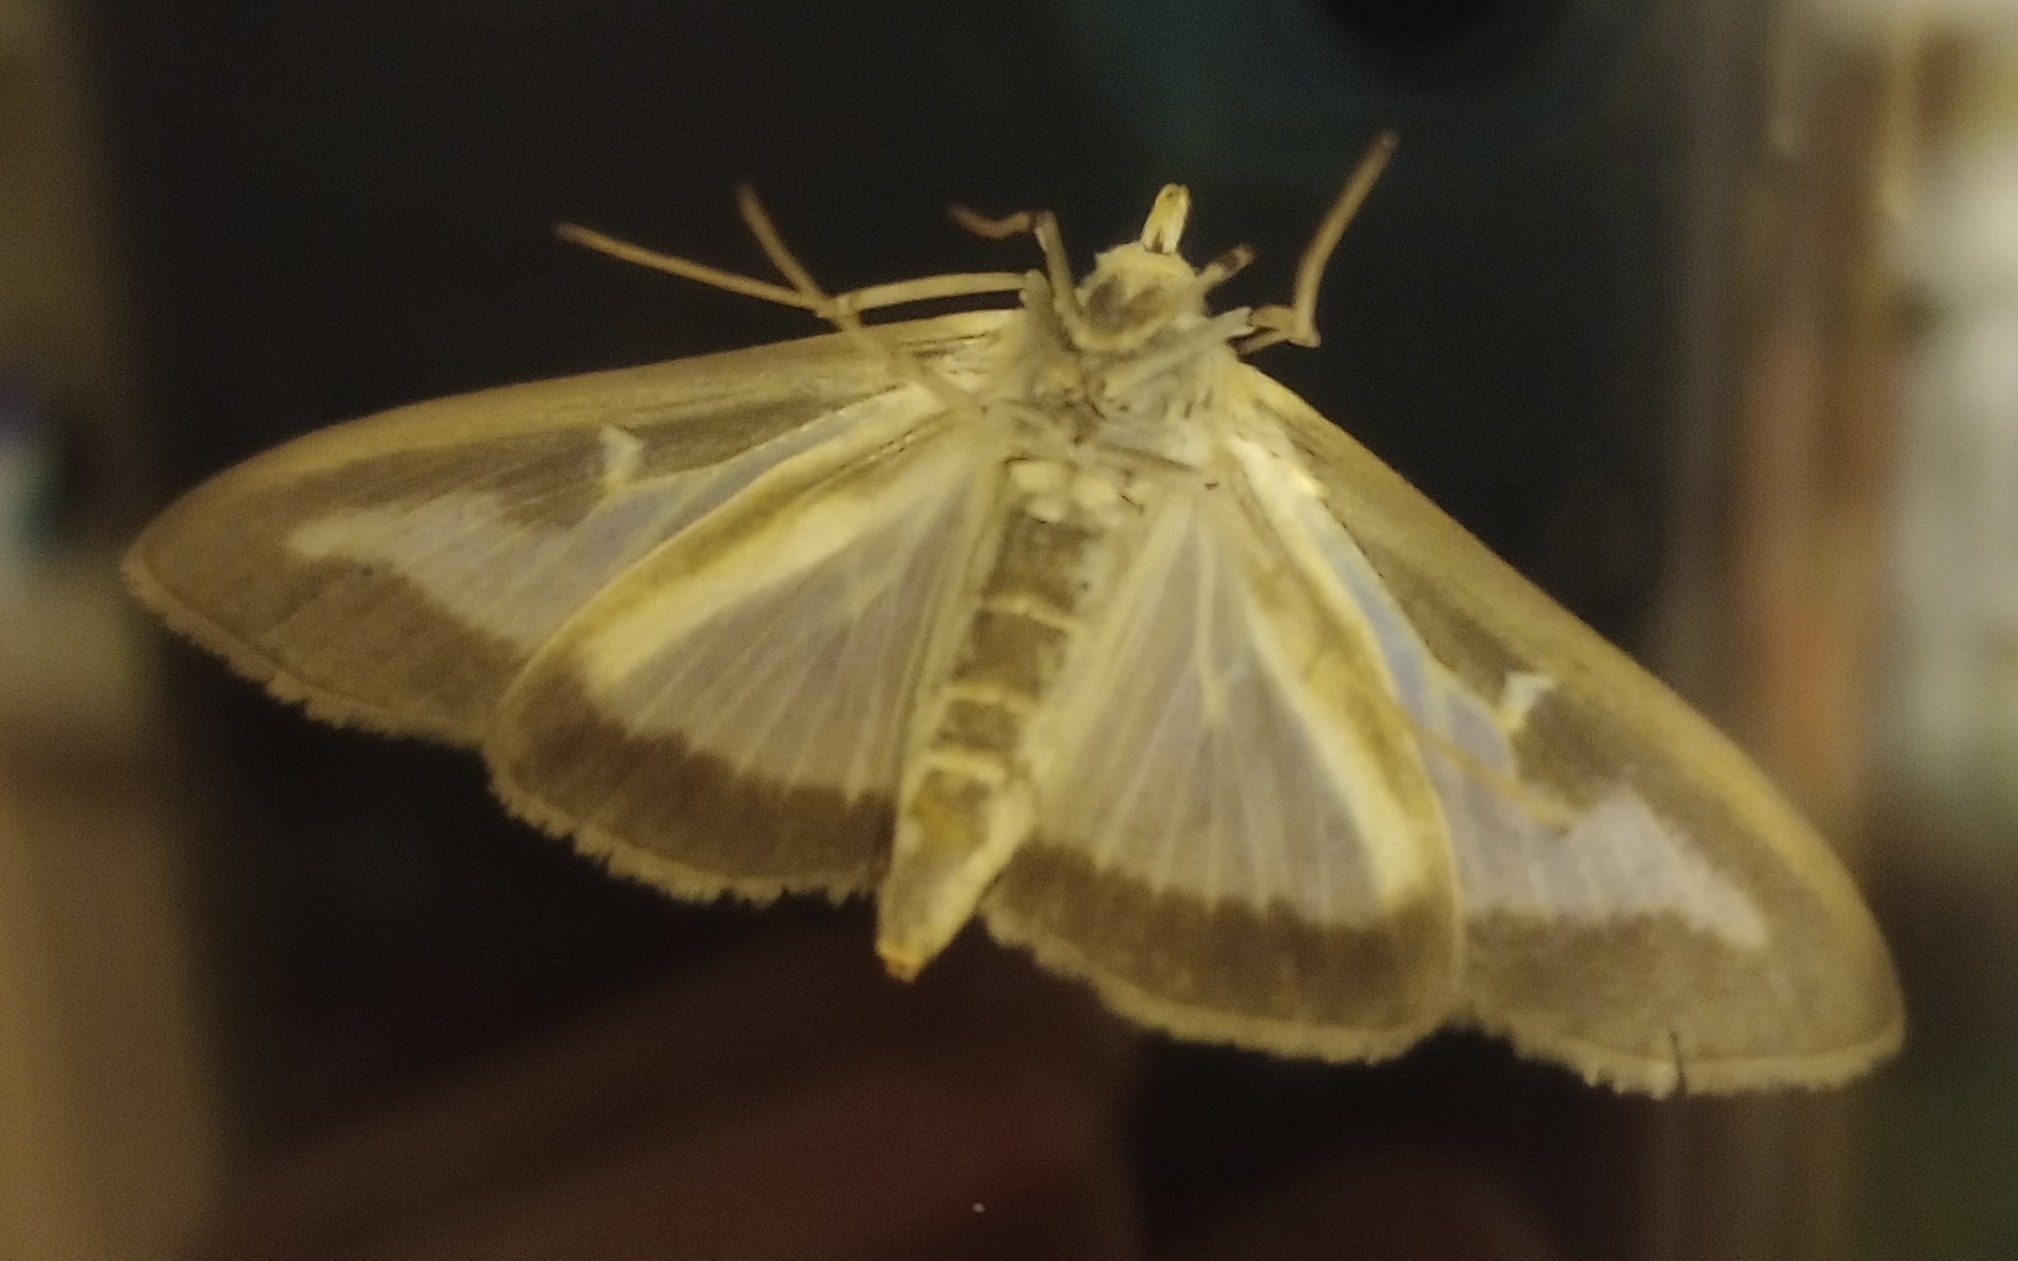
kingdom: Animalia
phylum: Arthropoda
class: Insecta
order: Lepidoptera
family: Crambidae
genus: Cydalima
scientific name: Cydalima perspectalis
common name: Box tree moth
